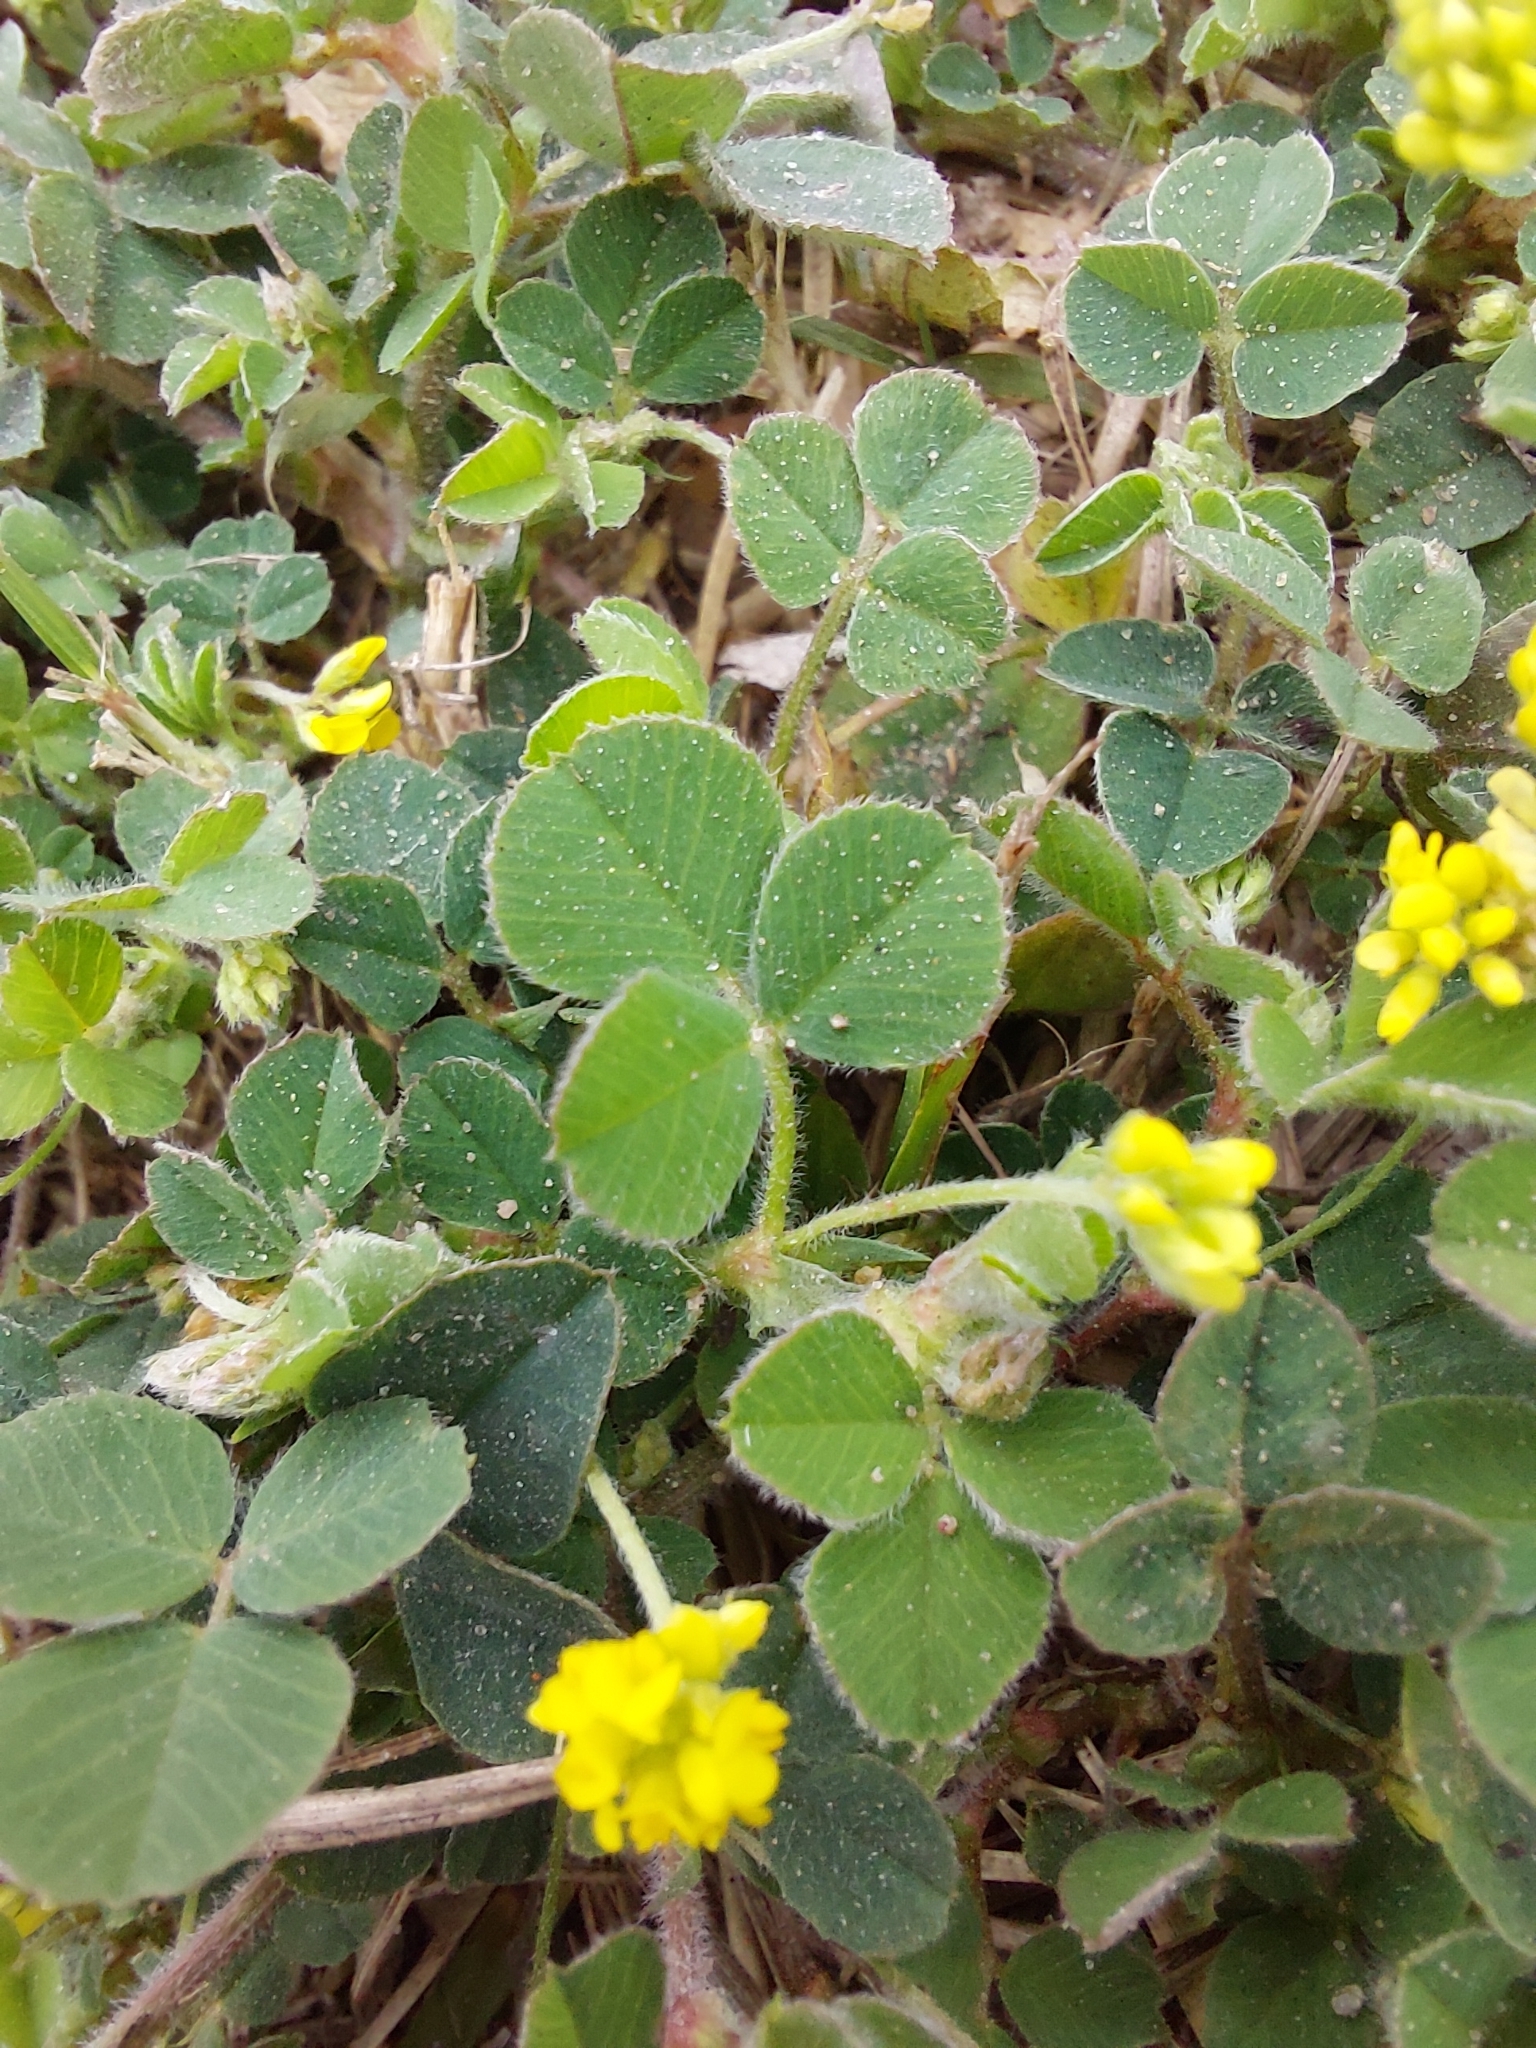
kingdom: Plantae
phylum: Tracheophyta
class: Magnoliopsida
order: Fabales
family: Fabaceae
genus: Medicago
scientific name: Medicago lupulina
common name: Black medick
